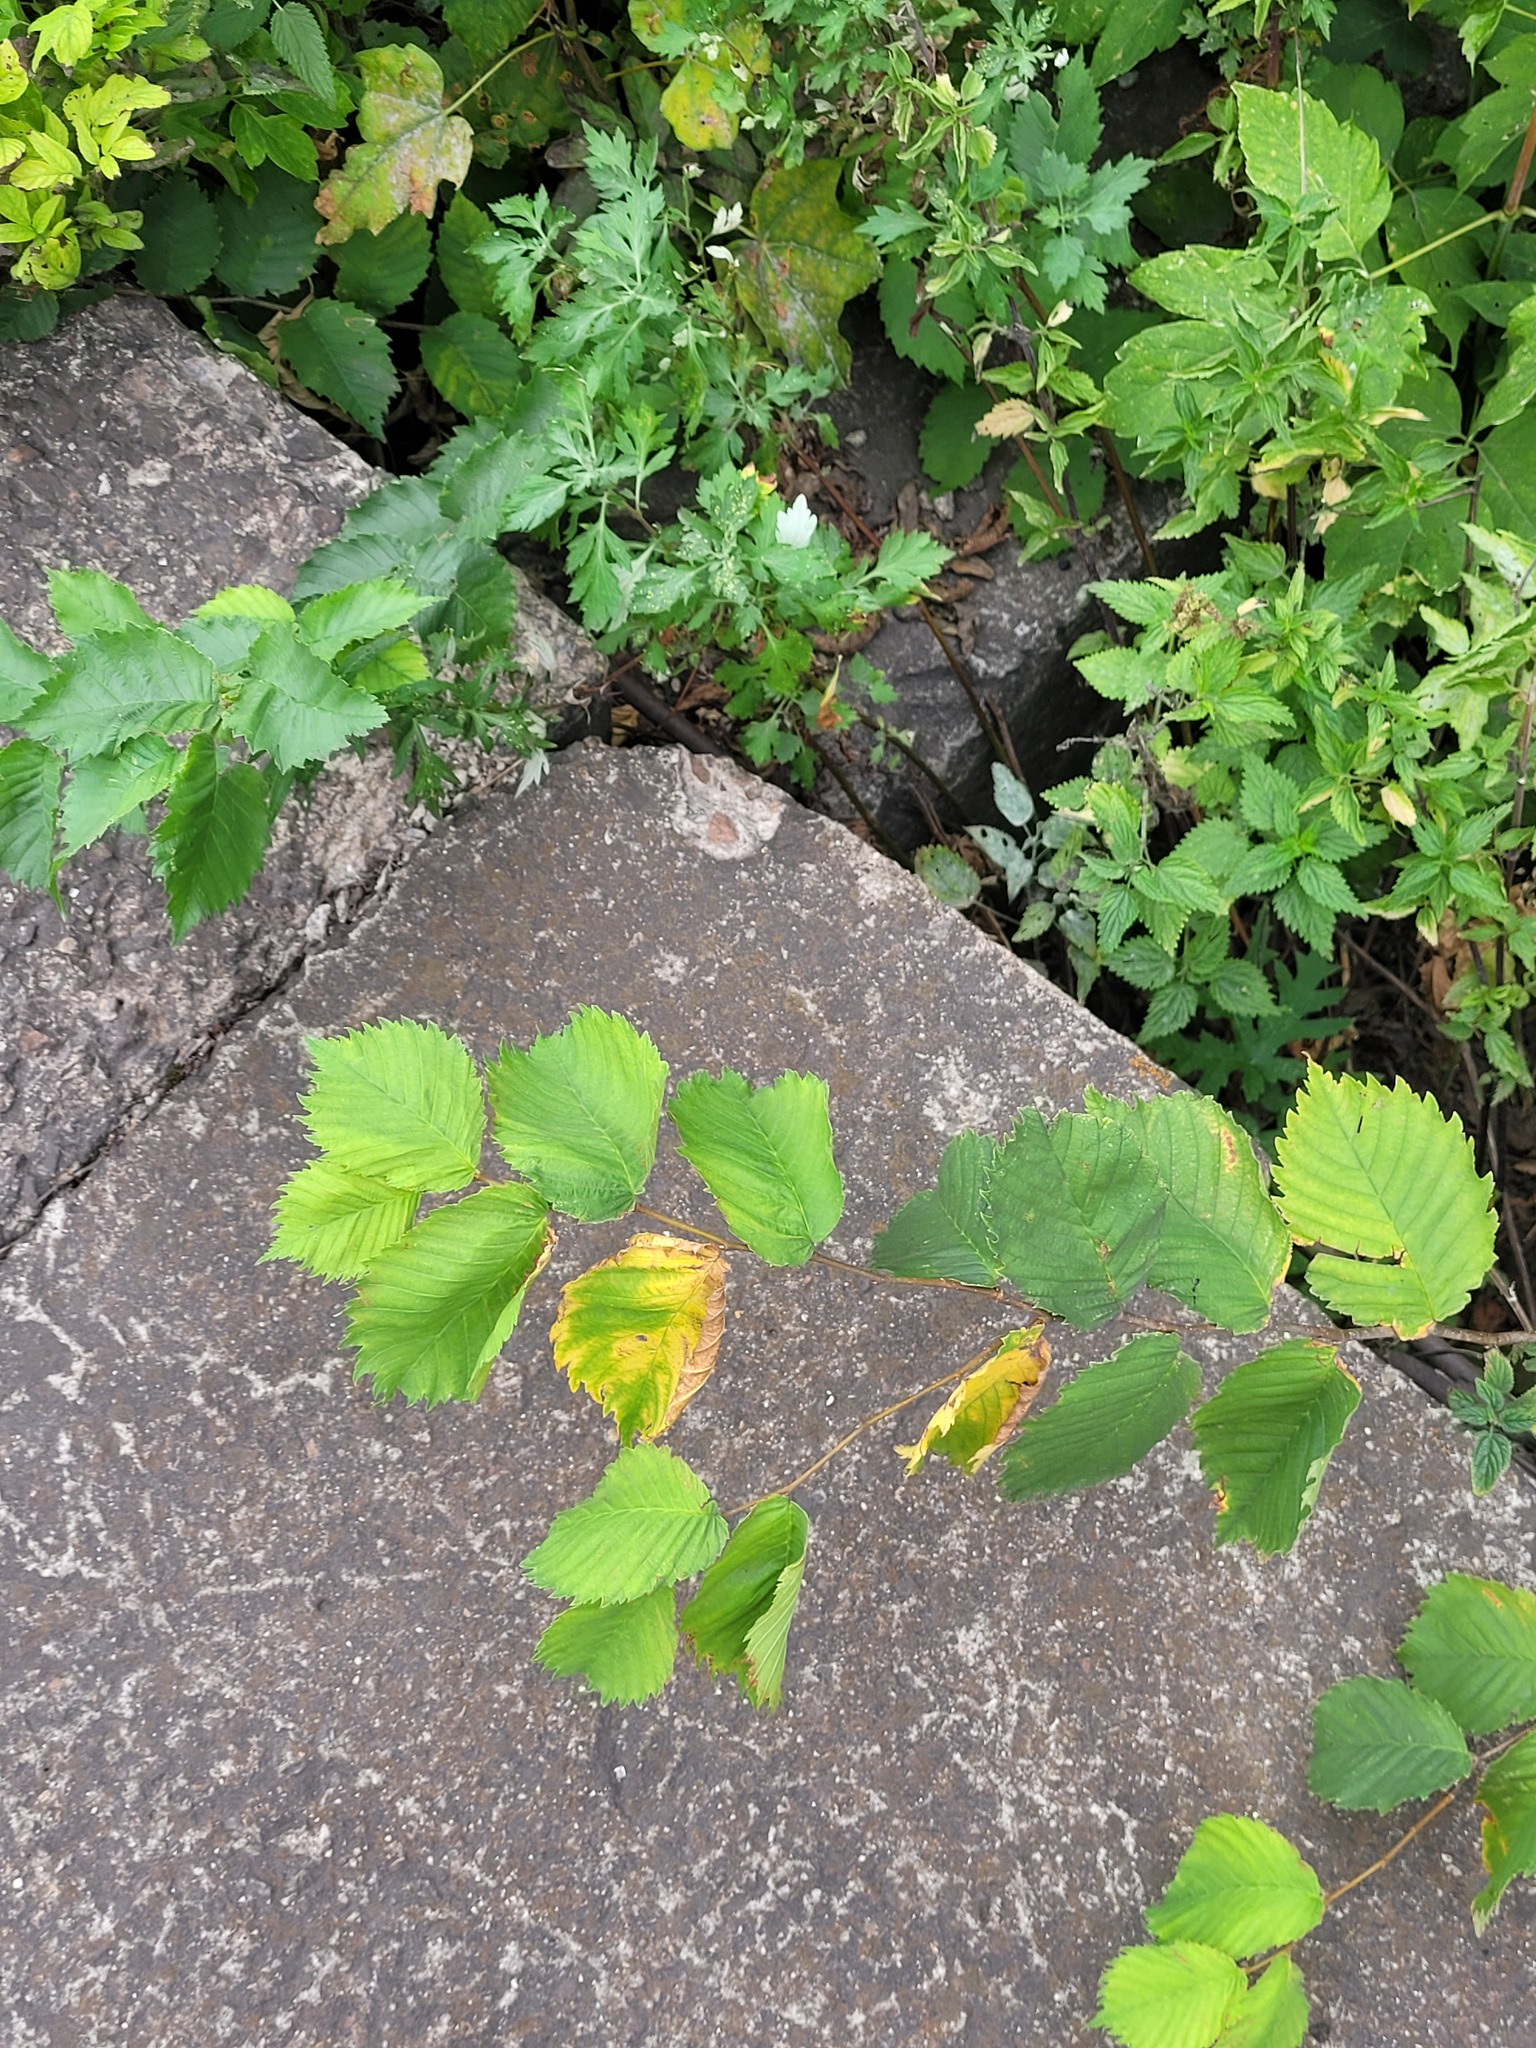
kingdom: Plantae
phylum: Tracheophyta
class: Magnoliopsida
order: Rosales
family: Ulmaceae
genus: Ulmus
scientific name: Ulmus laevis
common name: European white-elm
